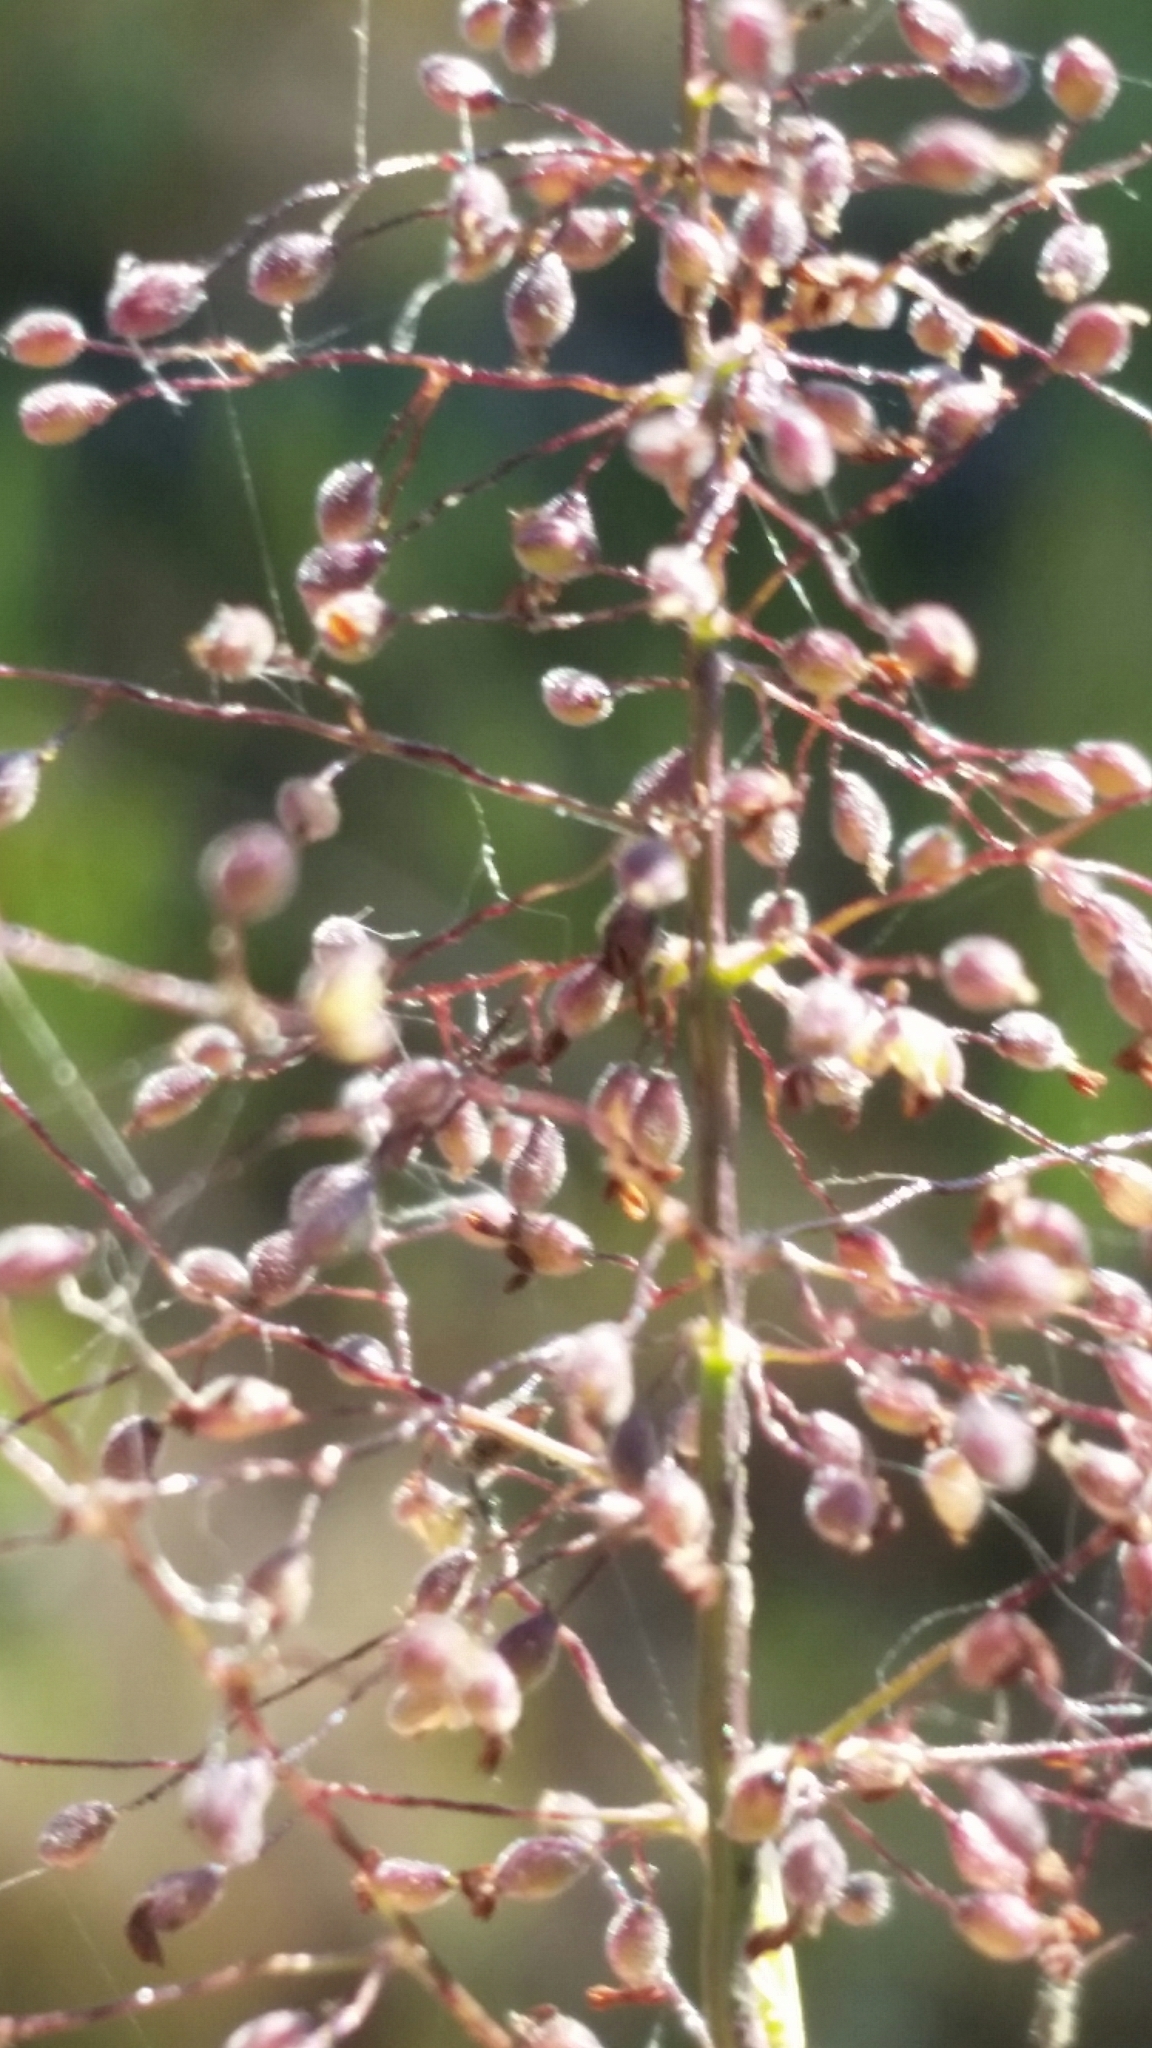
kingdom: Plantae
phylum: Tracheophyta
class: Liliopsida
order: Poales
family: Poaceae
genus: Dichanthelium
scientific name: Dichanthelium tenue
